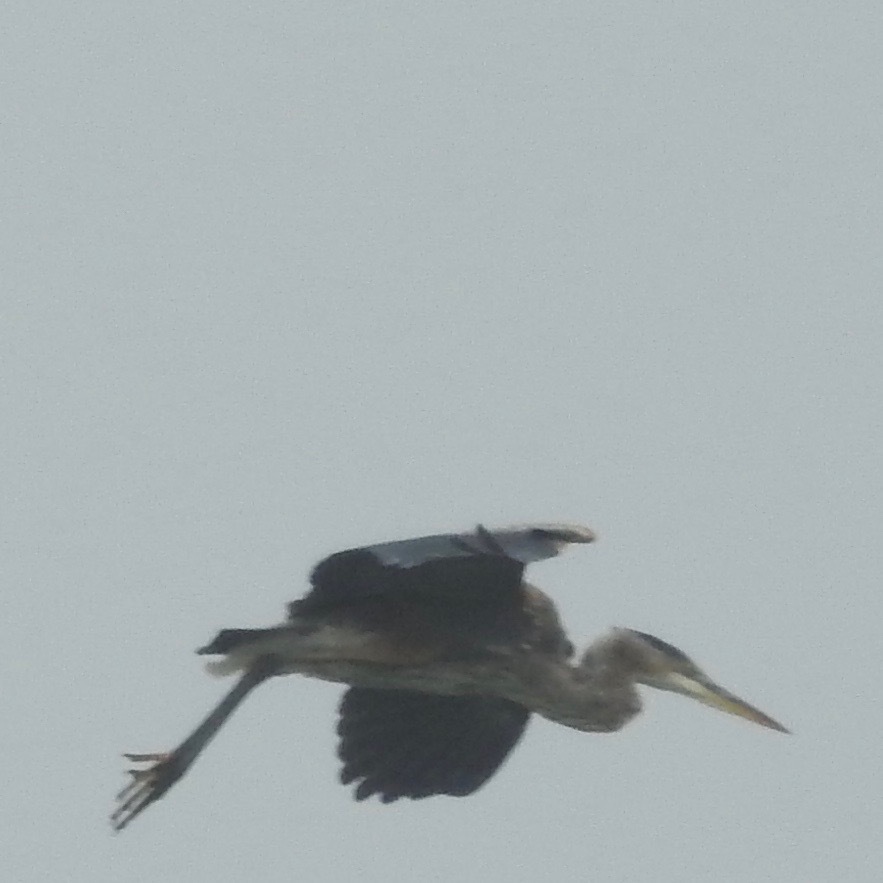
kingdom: Animalia
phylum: Chordata
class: Aves
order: Pelecaniformes
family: Ardeidae
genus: Ardea
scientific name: Ardea herodias
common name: Great blue heron
